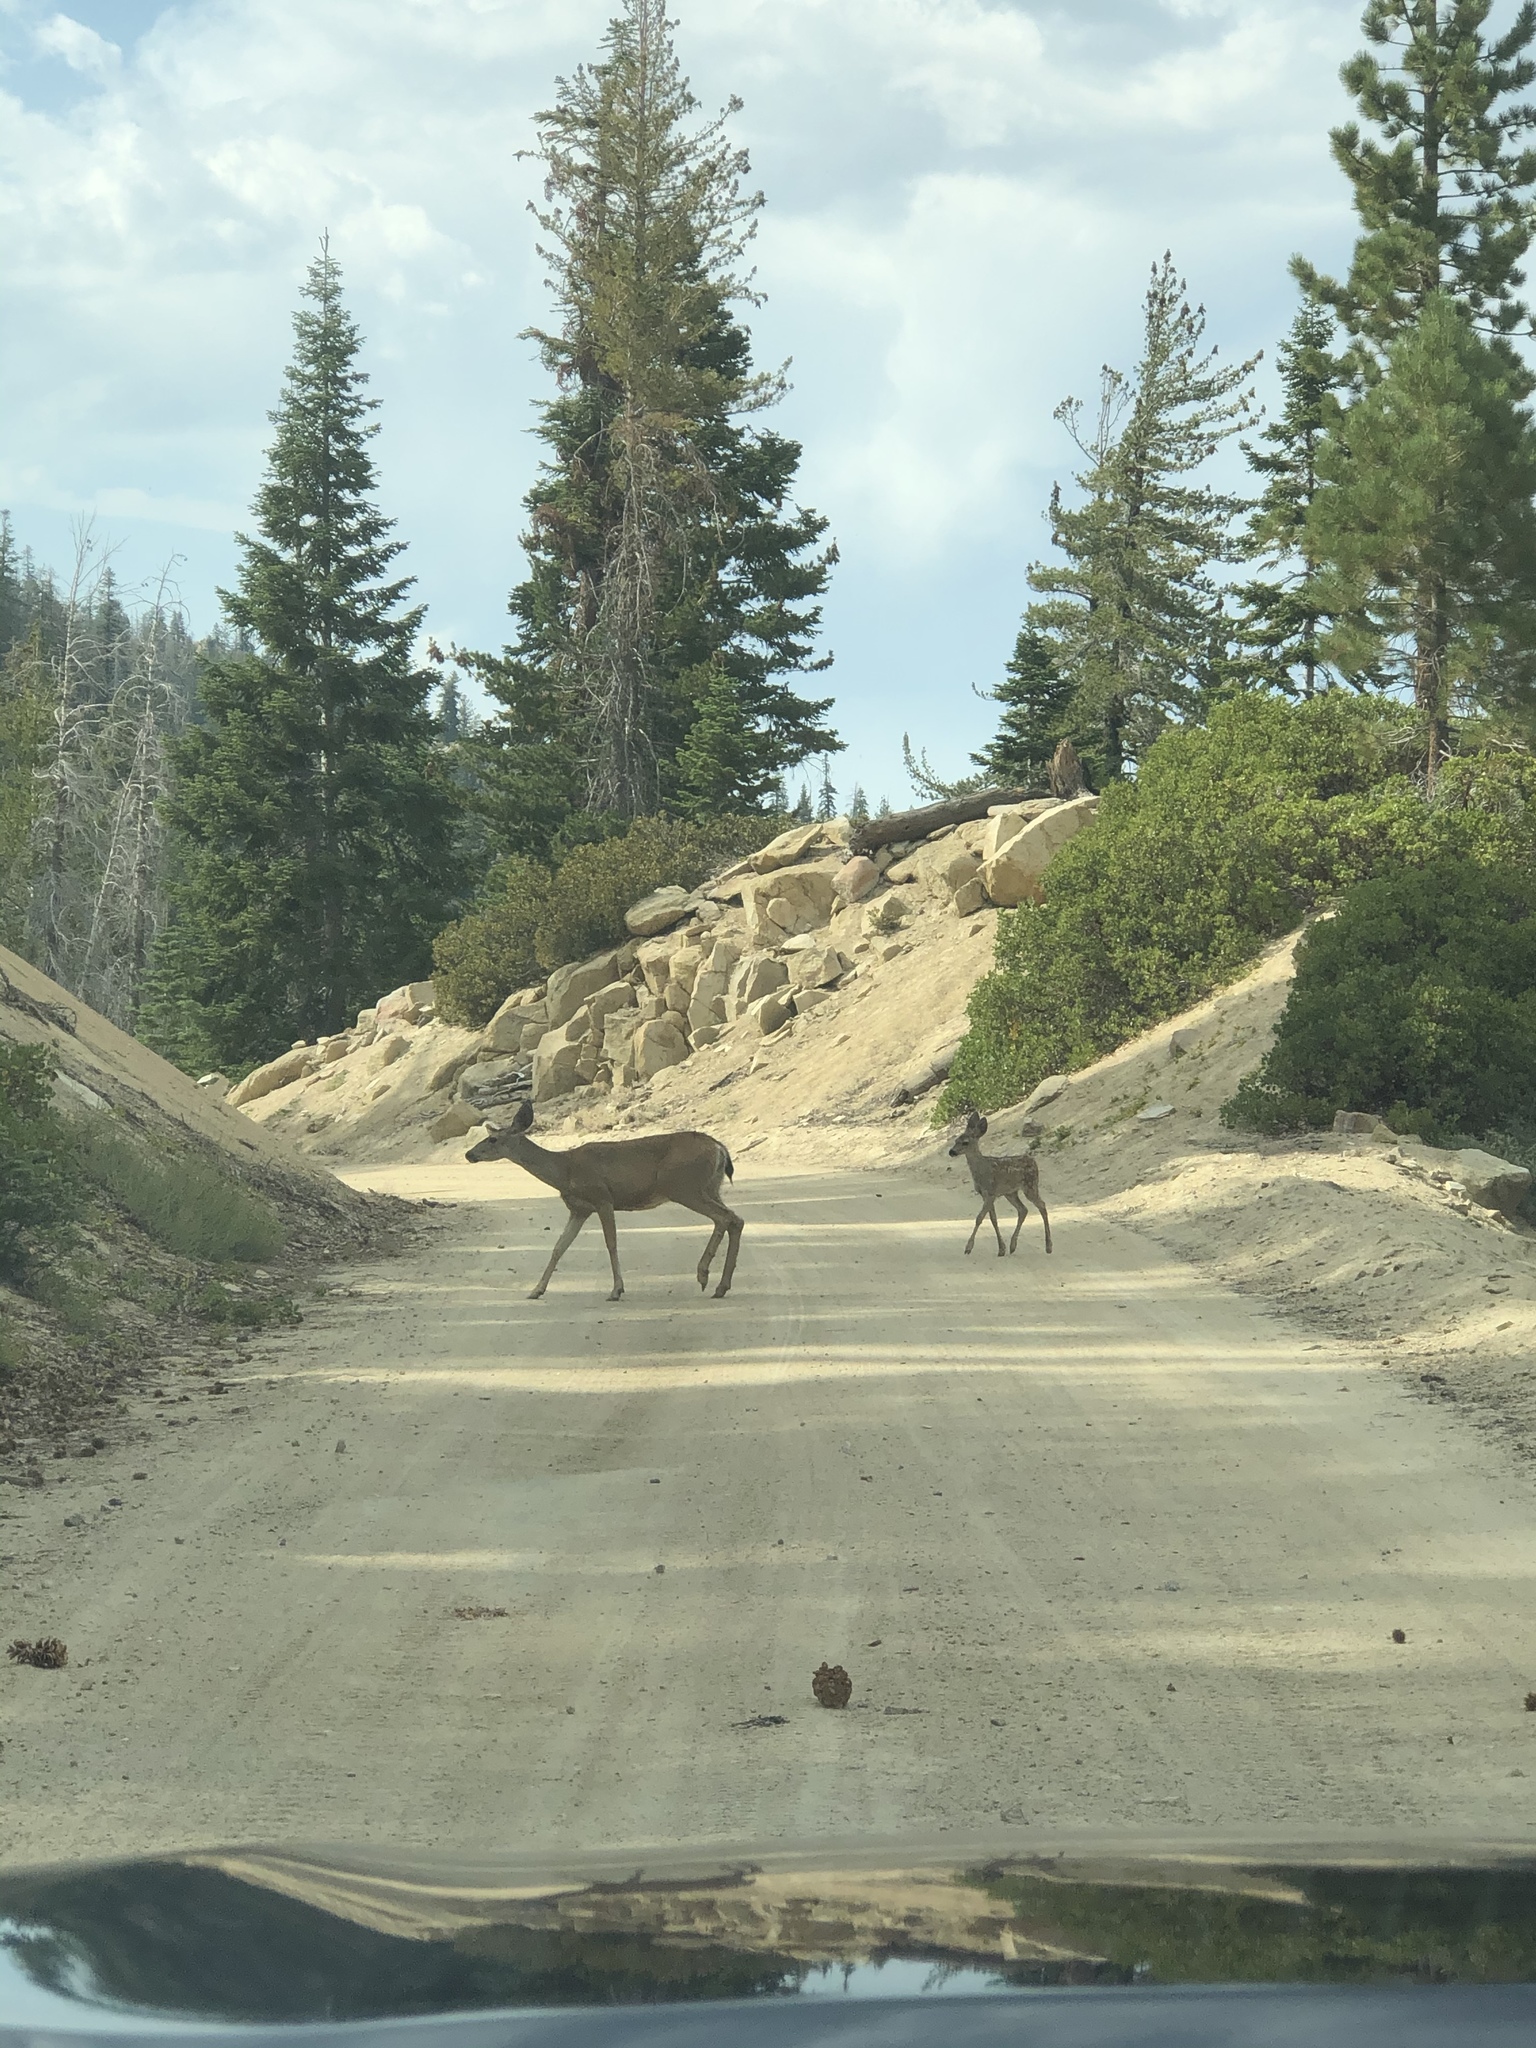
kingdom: Animalia
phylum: Chordata
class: Mammalia
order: Artiodactyla
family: Cervidae
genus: Odocoileus
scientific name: Odocoileus hemionus
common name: Mule deer
